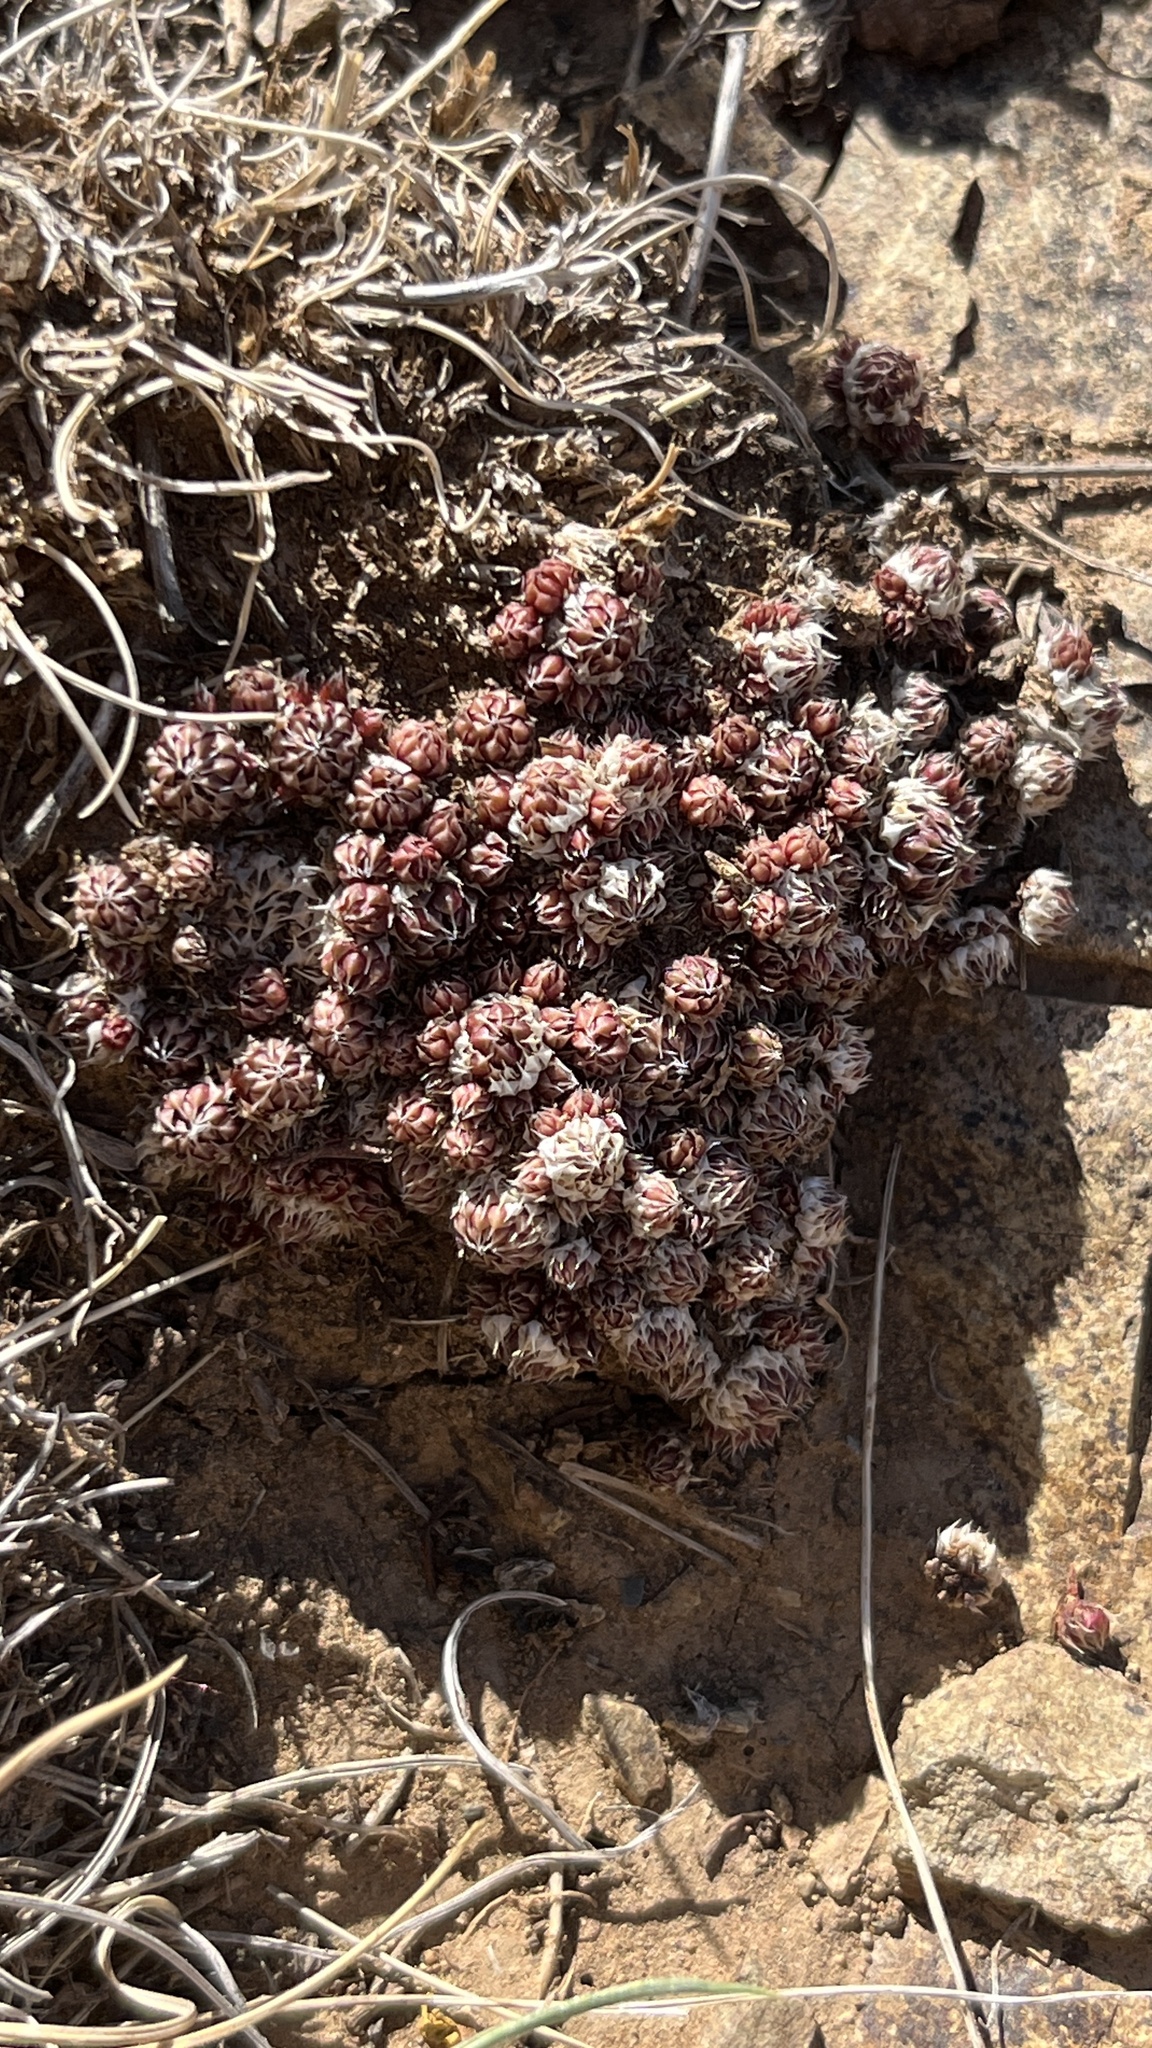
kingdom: Plantae
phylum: Tracheophyta
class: Magnoliopsida
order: Saxifragales
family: Crassulaceae
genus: Orostachys
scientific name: Orostachys spinosa
